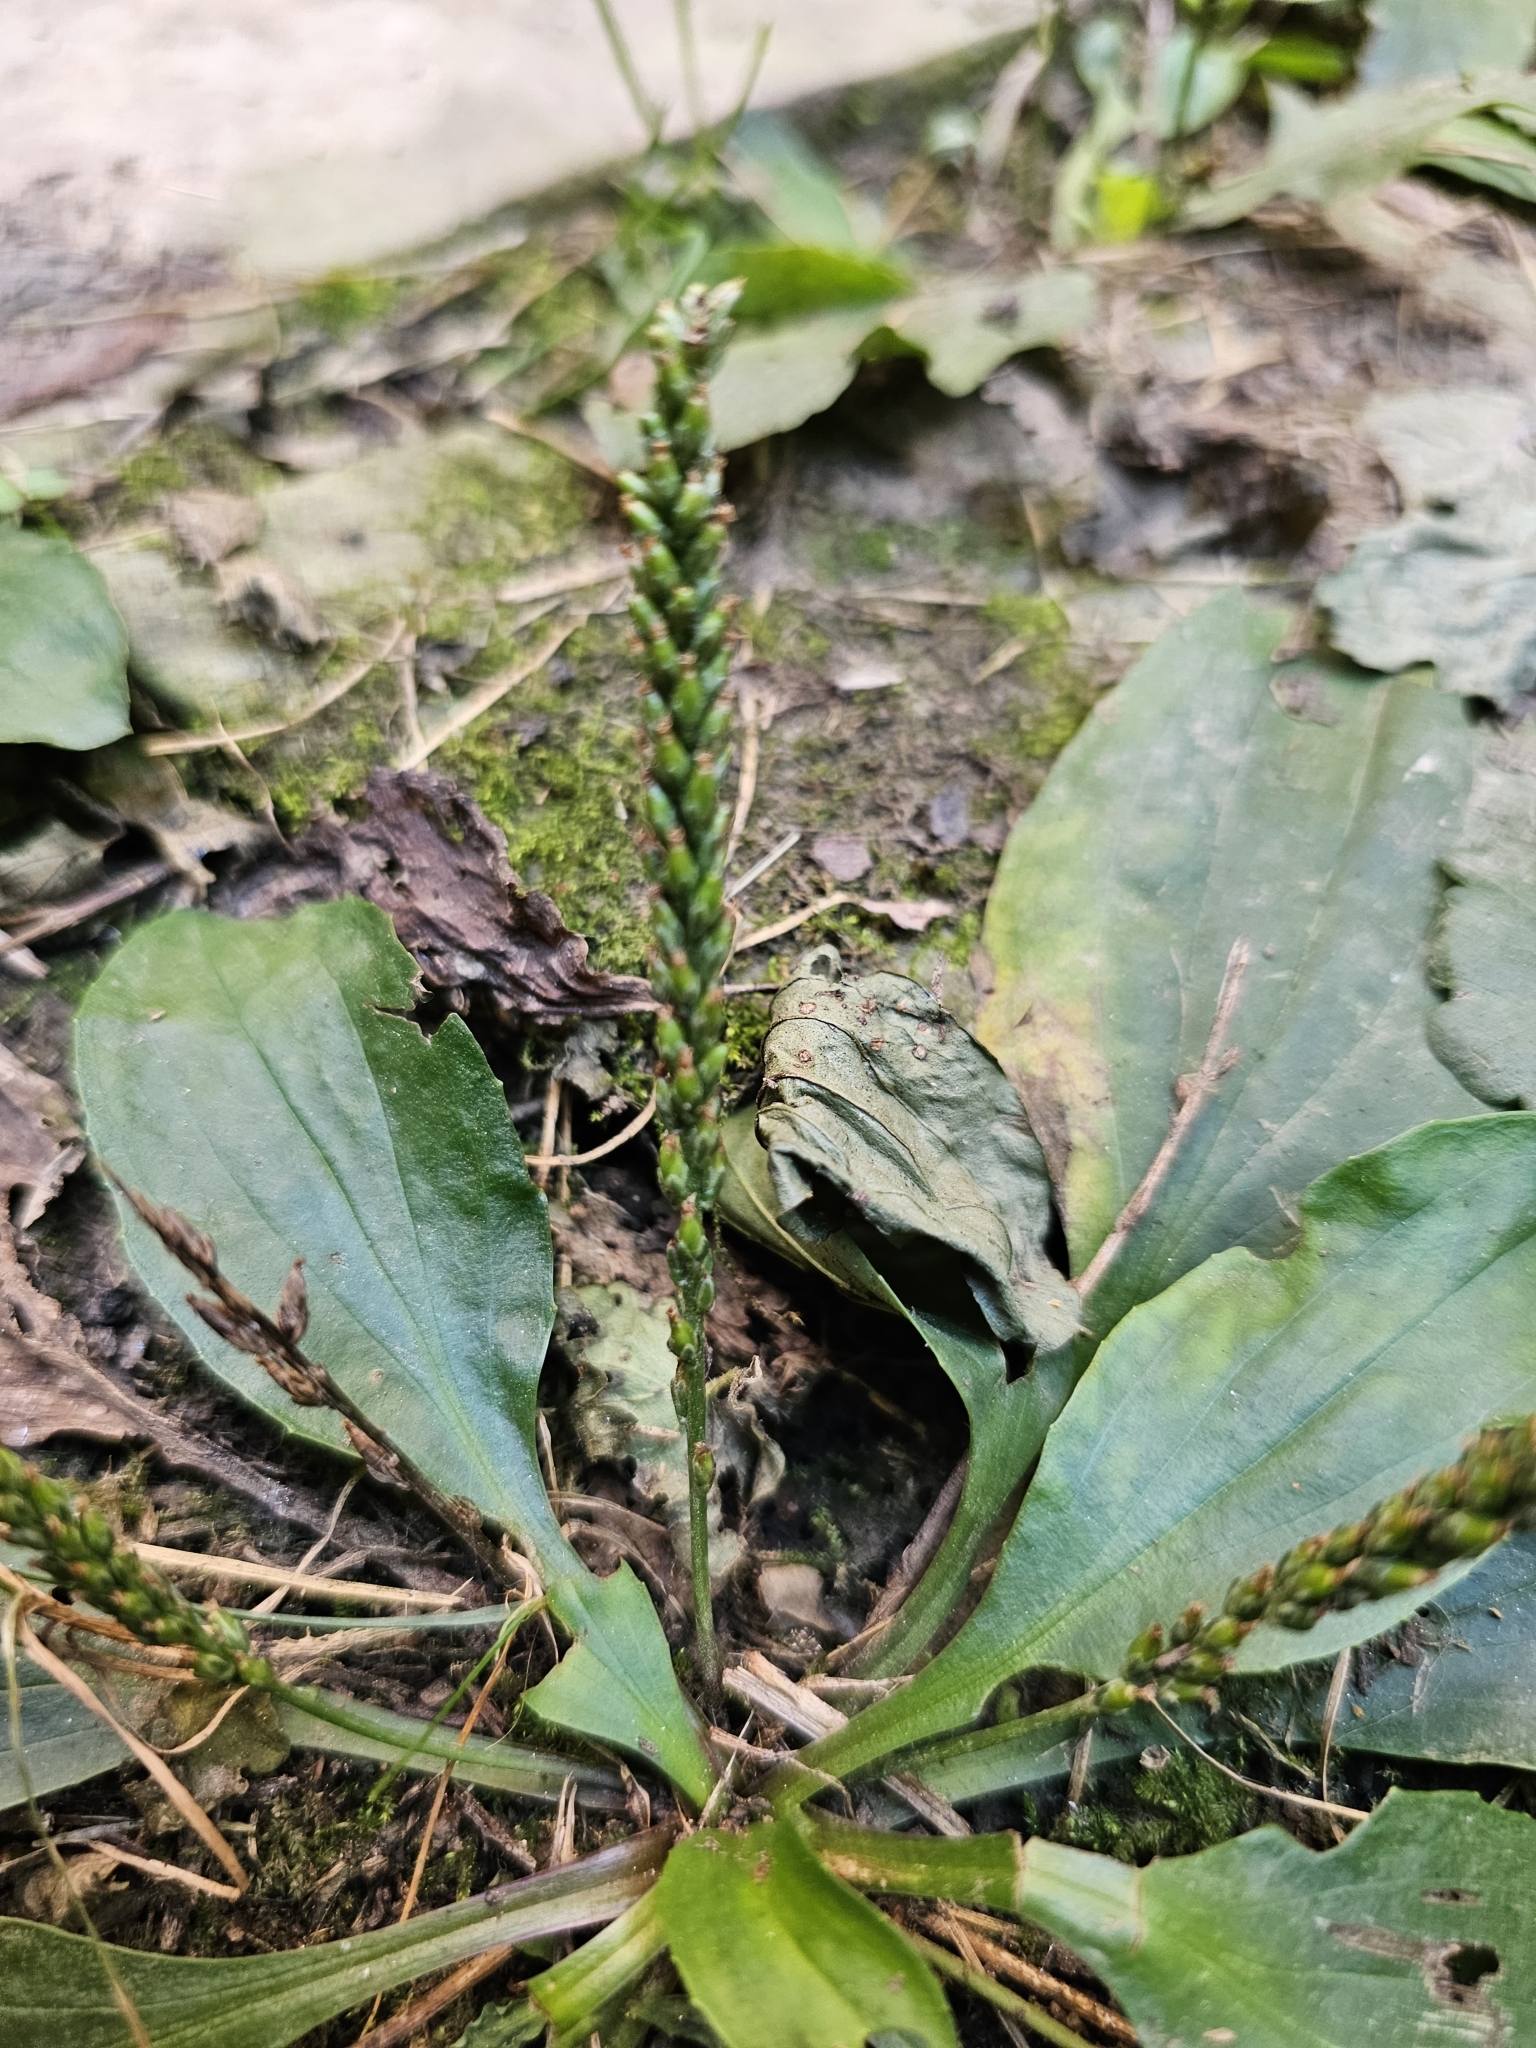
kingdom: Plantae
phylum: Tracheophyta
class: Magnoliopsida
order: Lamiales
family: Plantaginaceae
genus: Plantago
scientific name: Plantago major
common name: Common plantain
